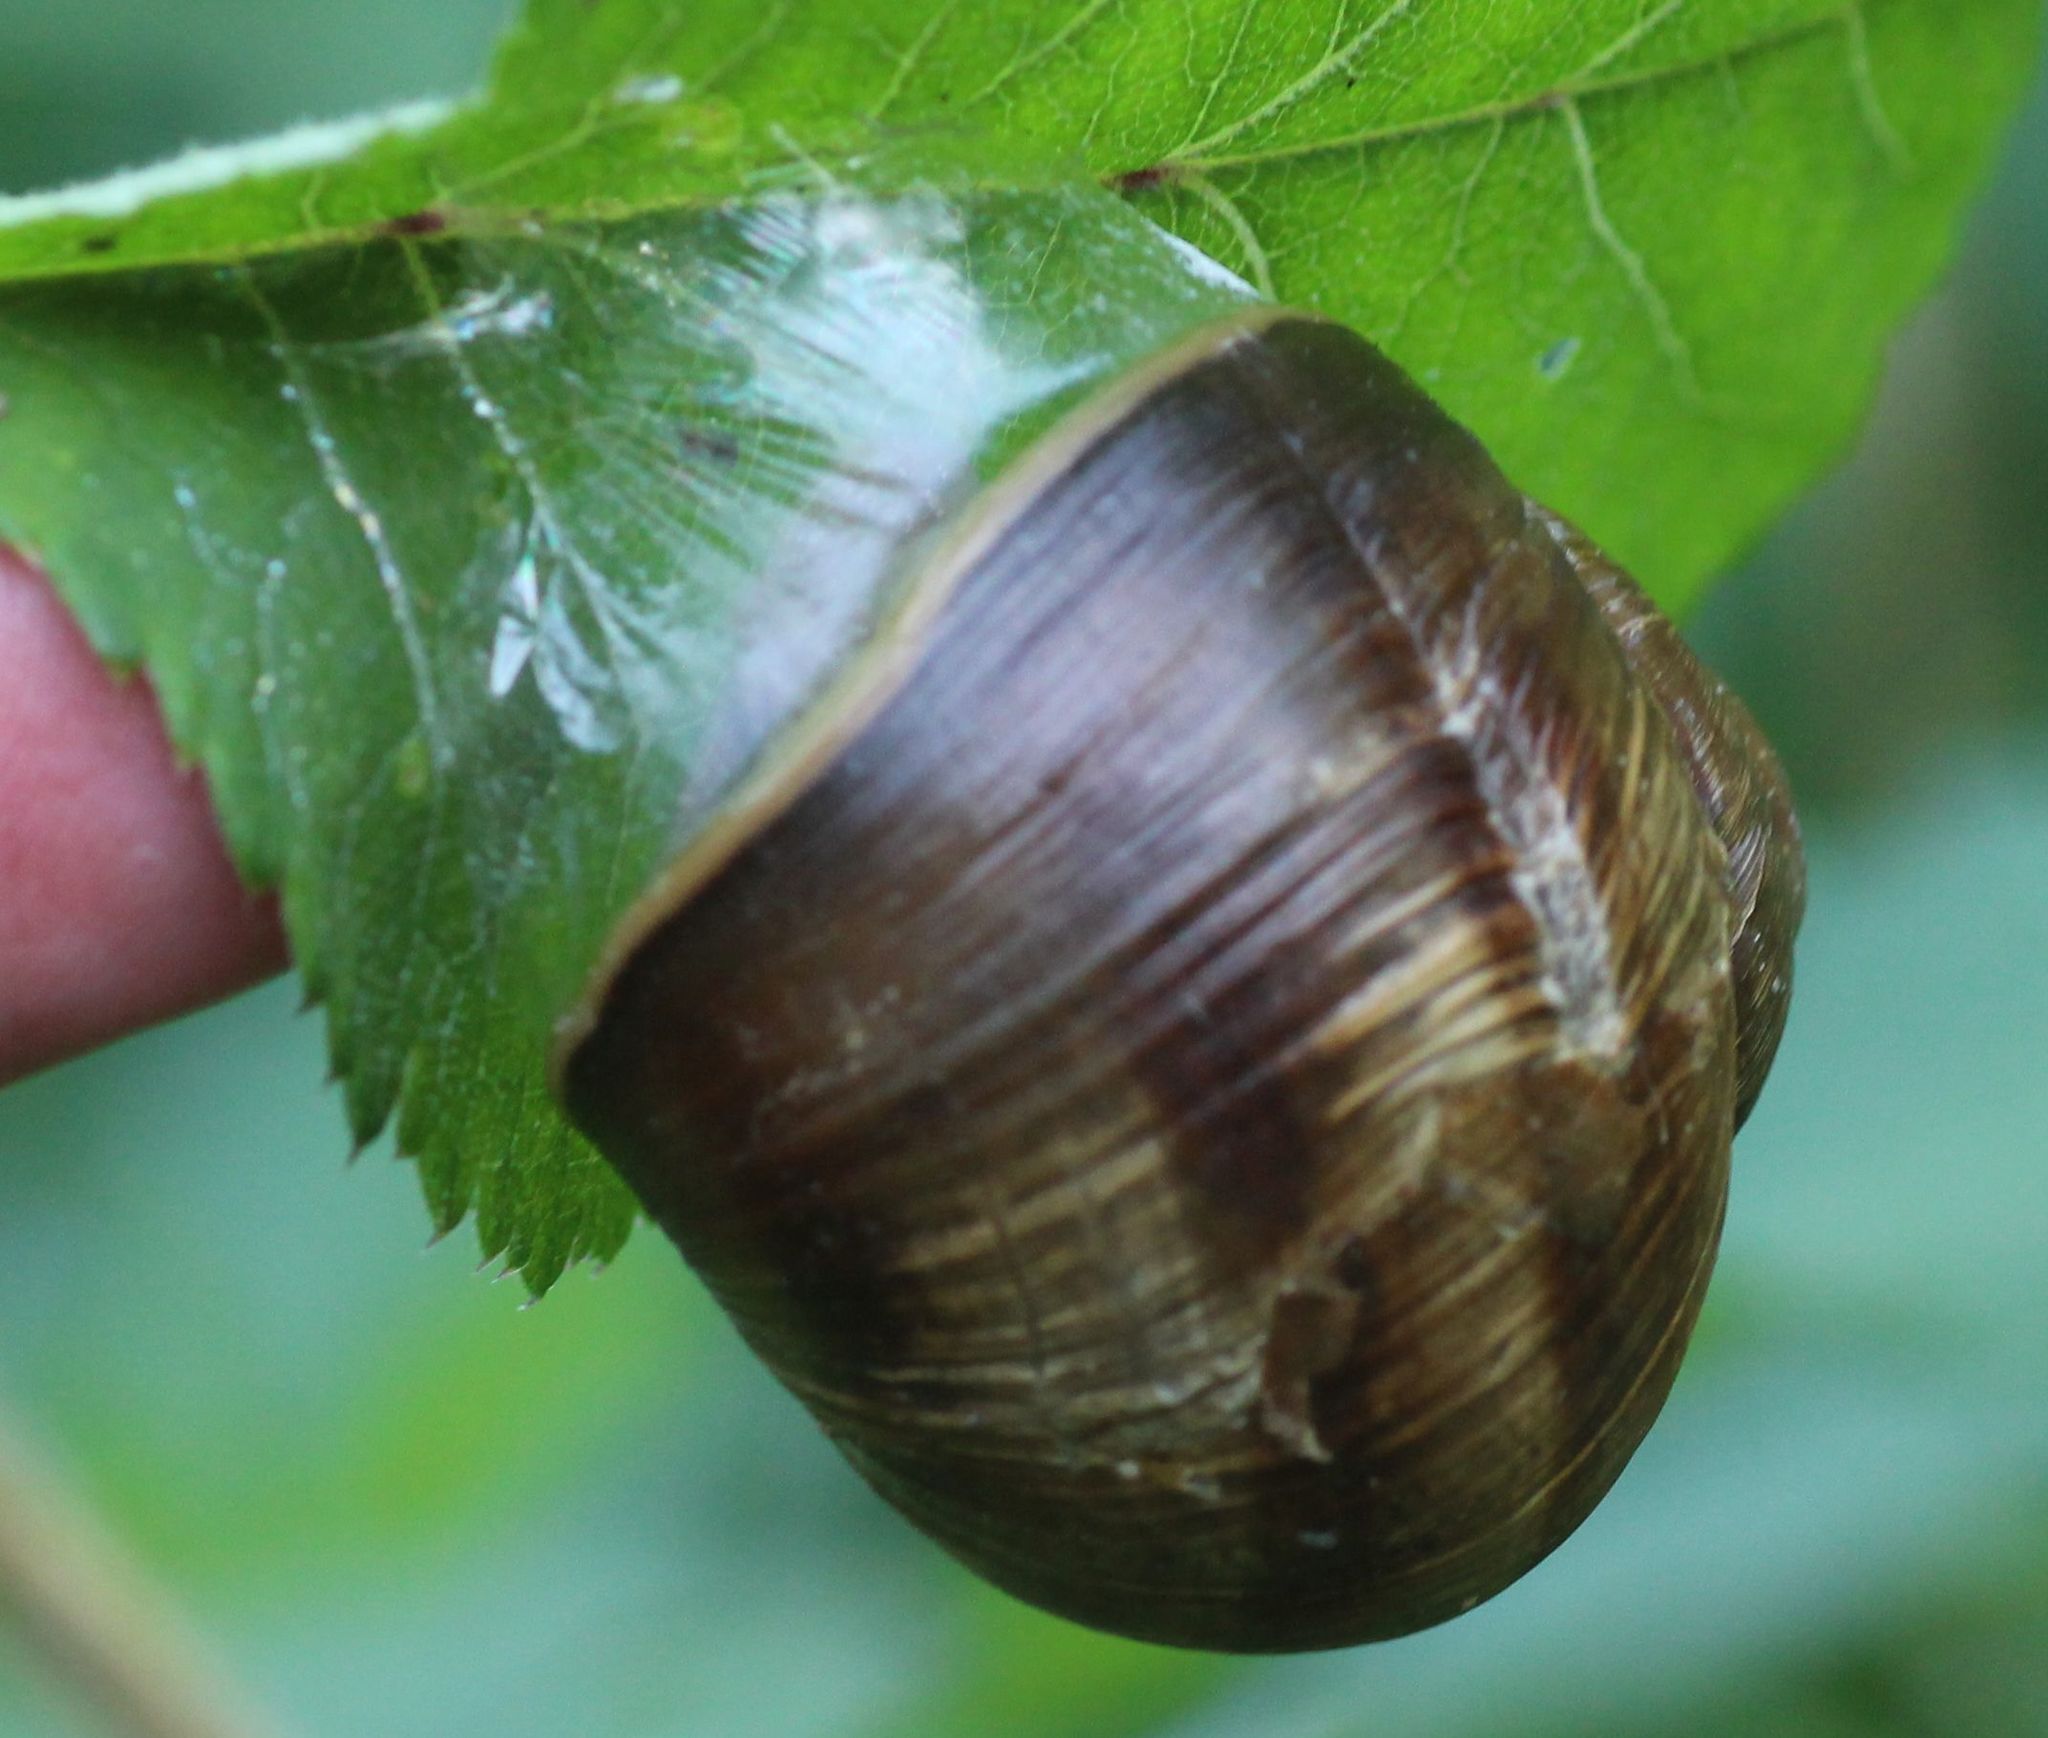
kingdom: Animalia
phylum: Mollusca
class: Gastropoda
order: Stylommatophora
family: Helicidae
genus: Helix
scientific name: Helix pomatia
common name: Roman snail
